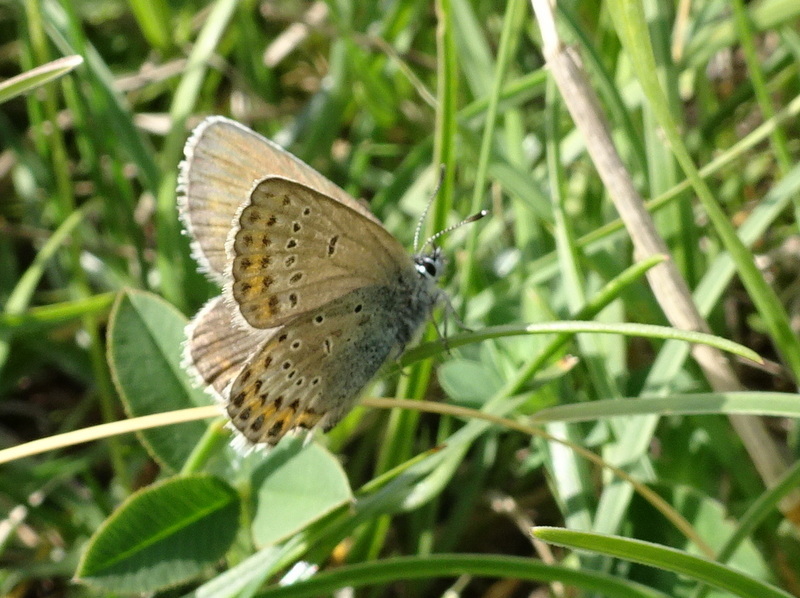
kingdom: Animalia
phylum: Arthropoda
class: Insecta
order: Lepidoptera
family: Lycaenidae
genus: Lycaeides
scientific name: Lycaeides idas
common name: Northern blue
